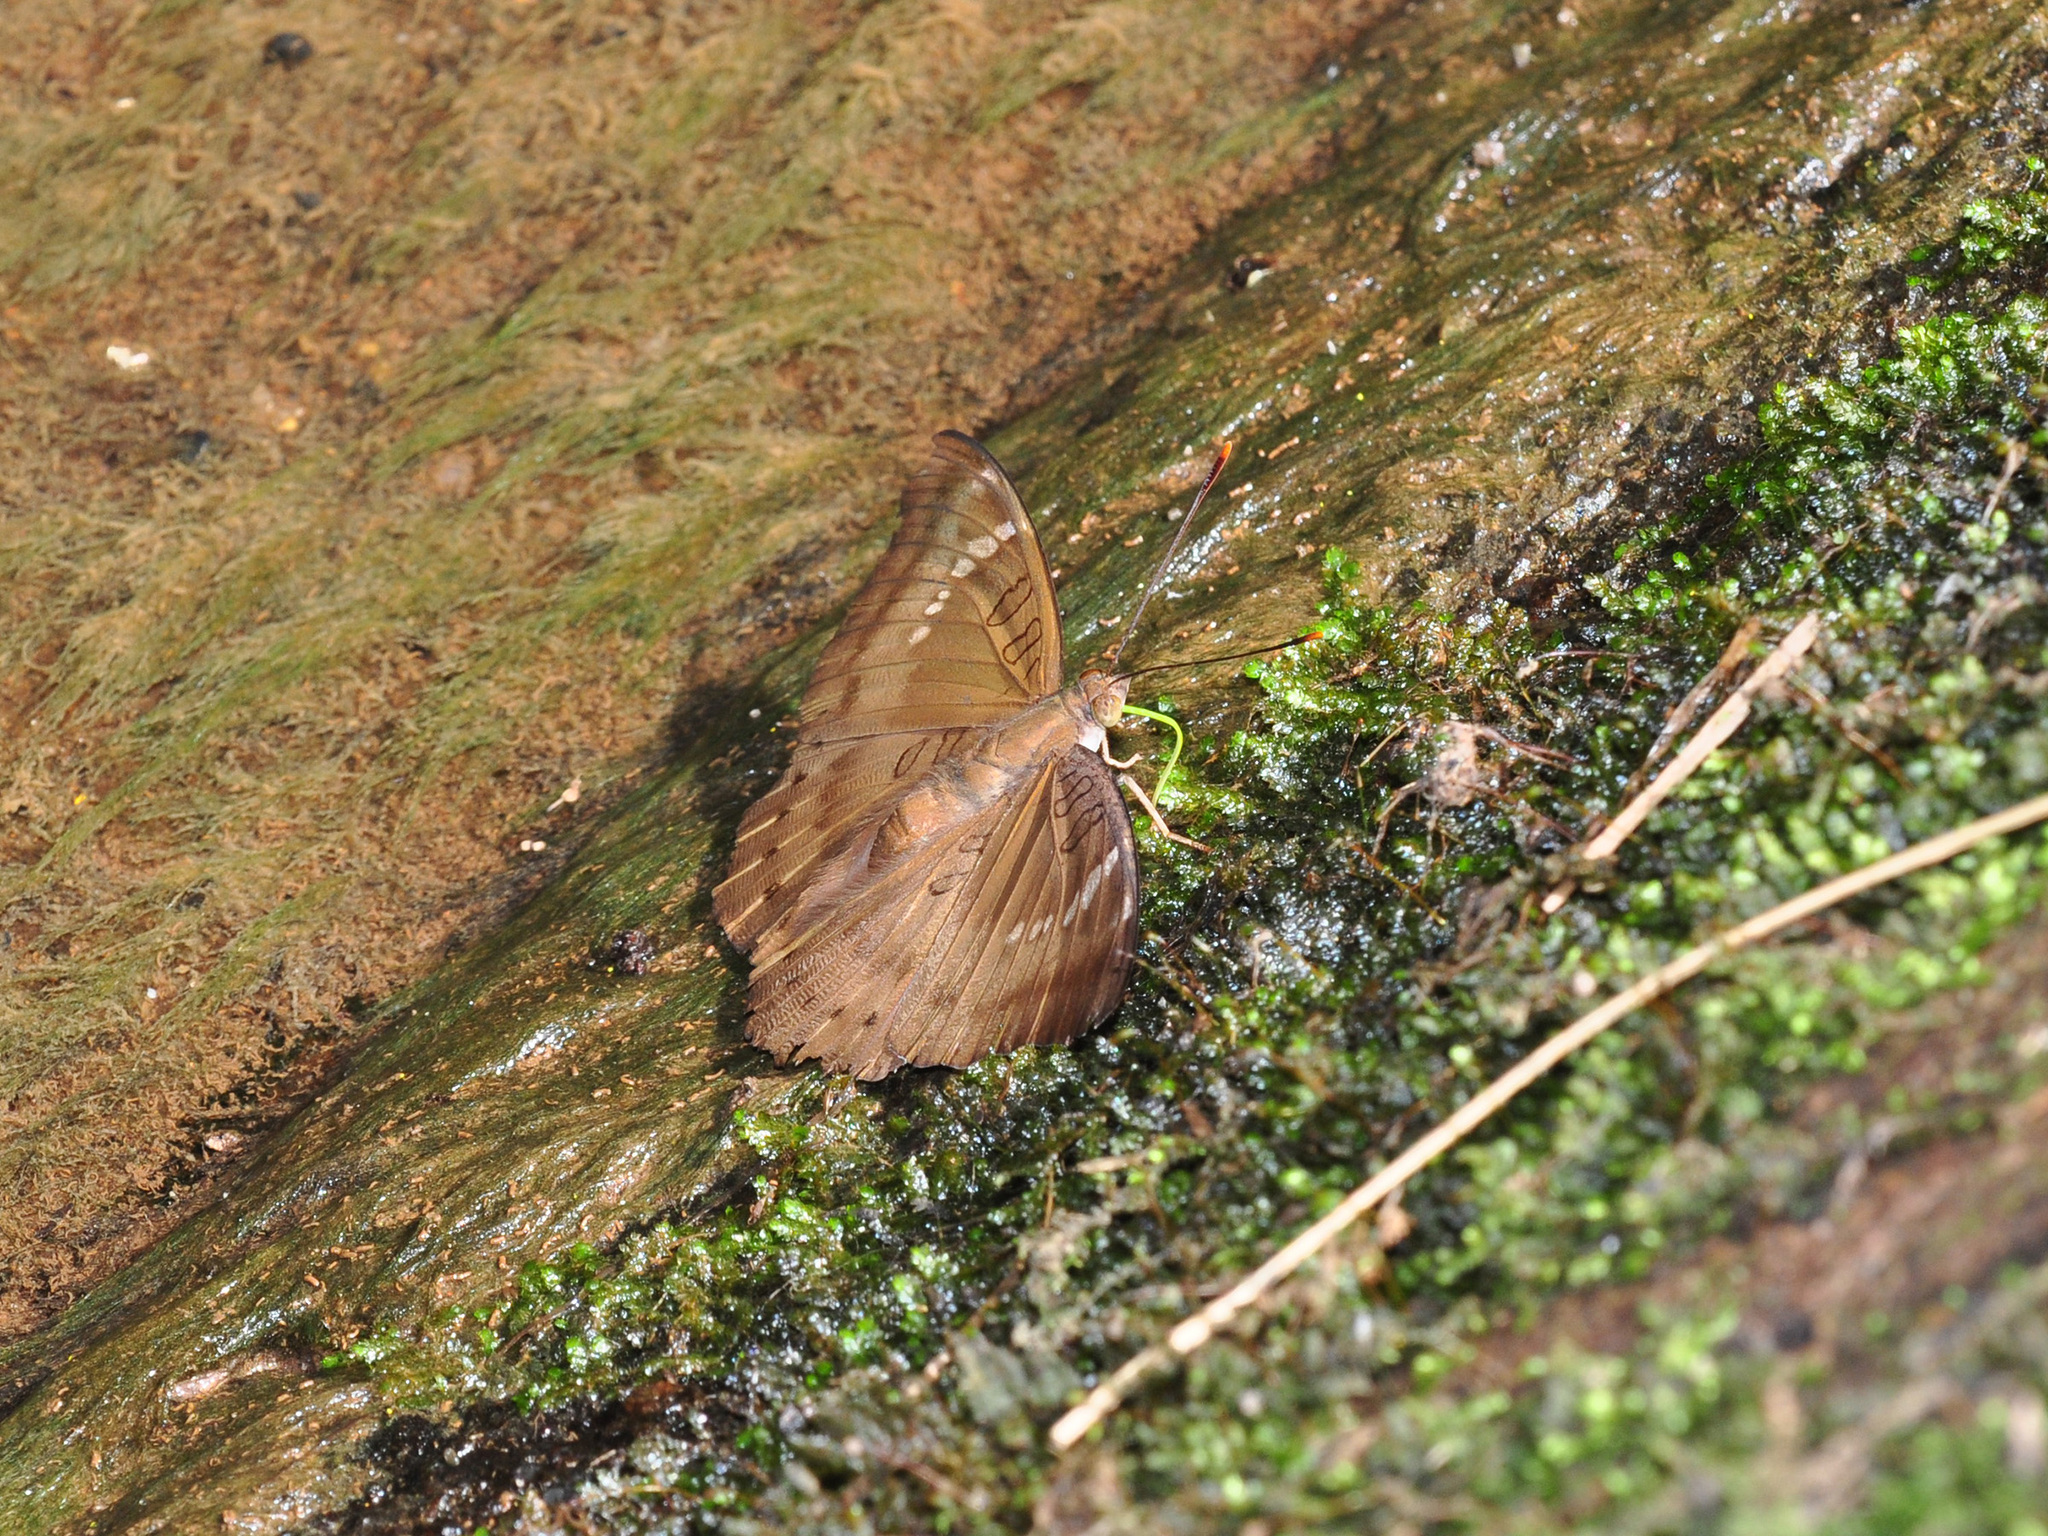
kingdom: Animalia
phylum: Arthropoda
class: Insecta
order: Lepidoptera
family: Nymphalidae
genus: Euthalia
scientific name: Euthalia aconthea
